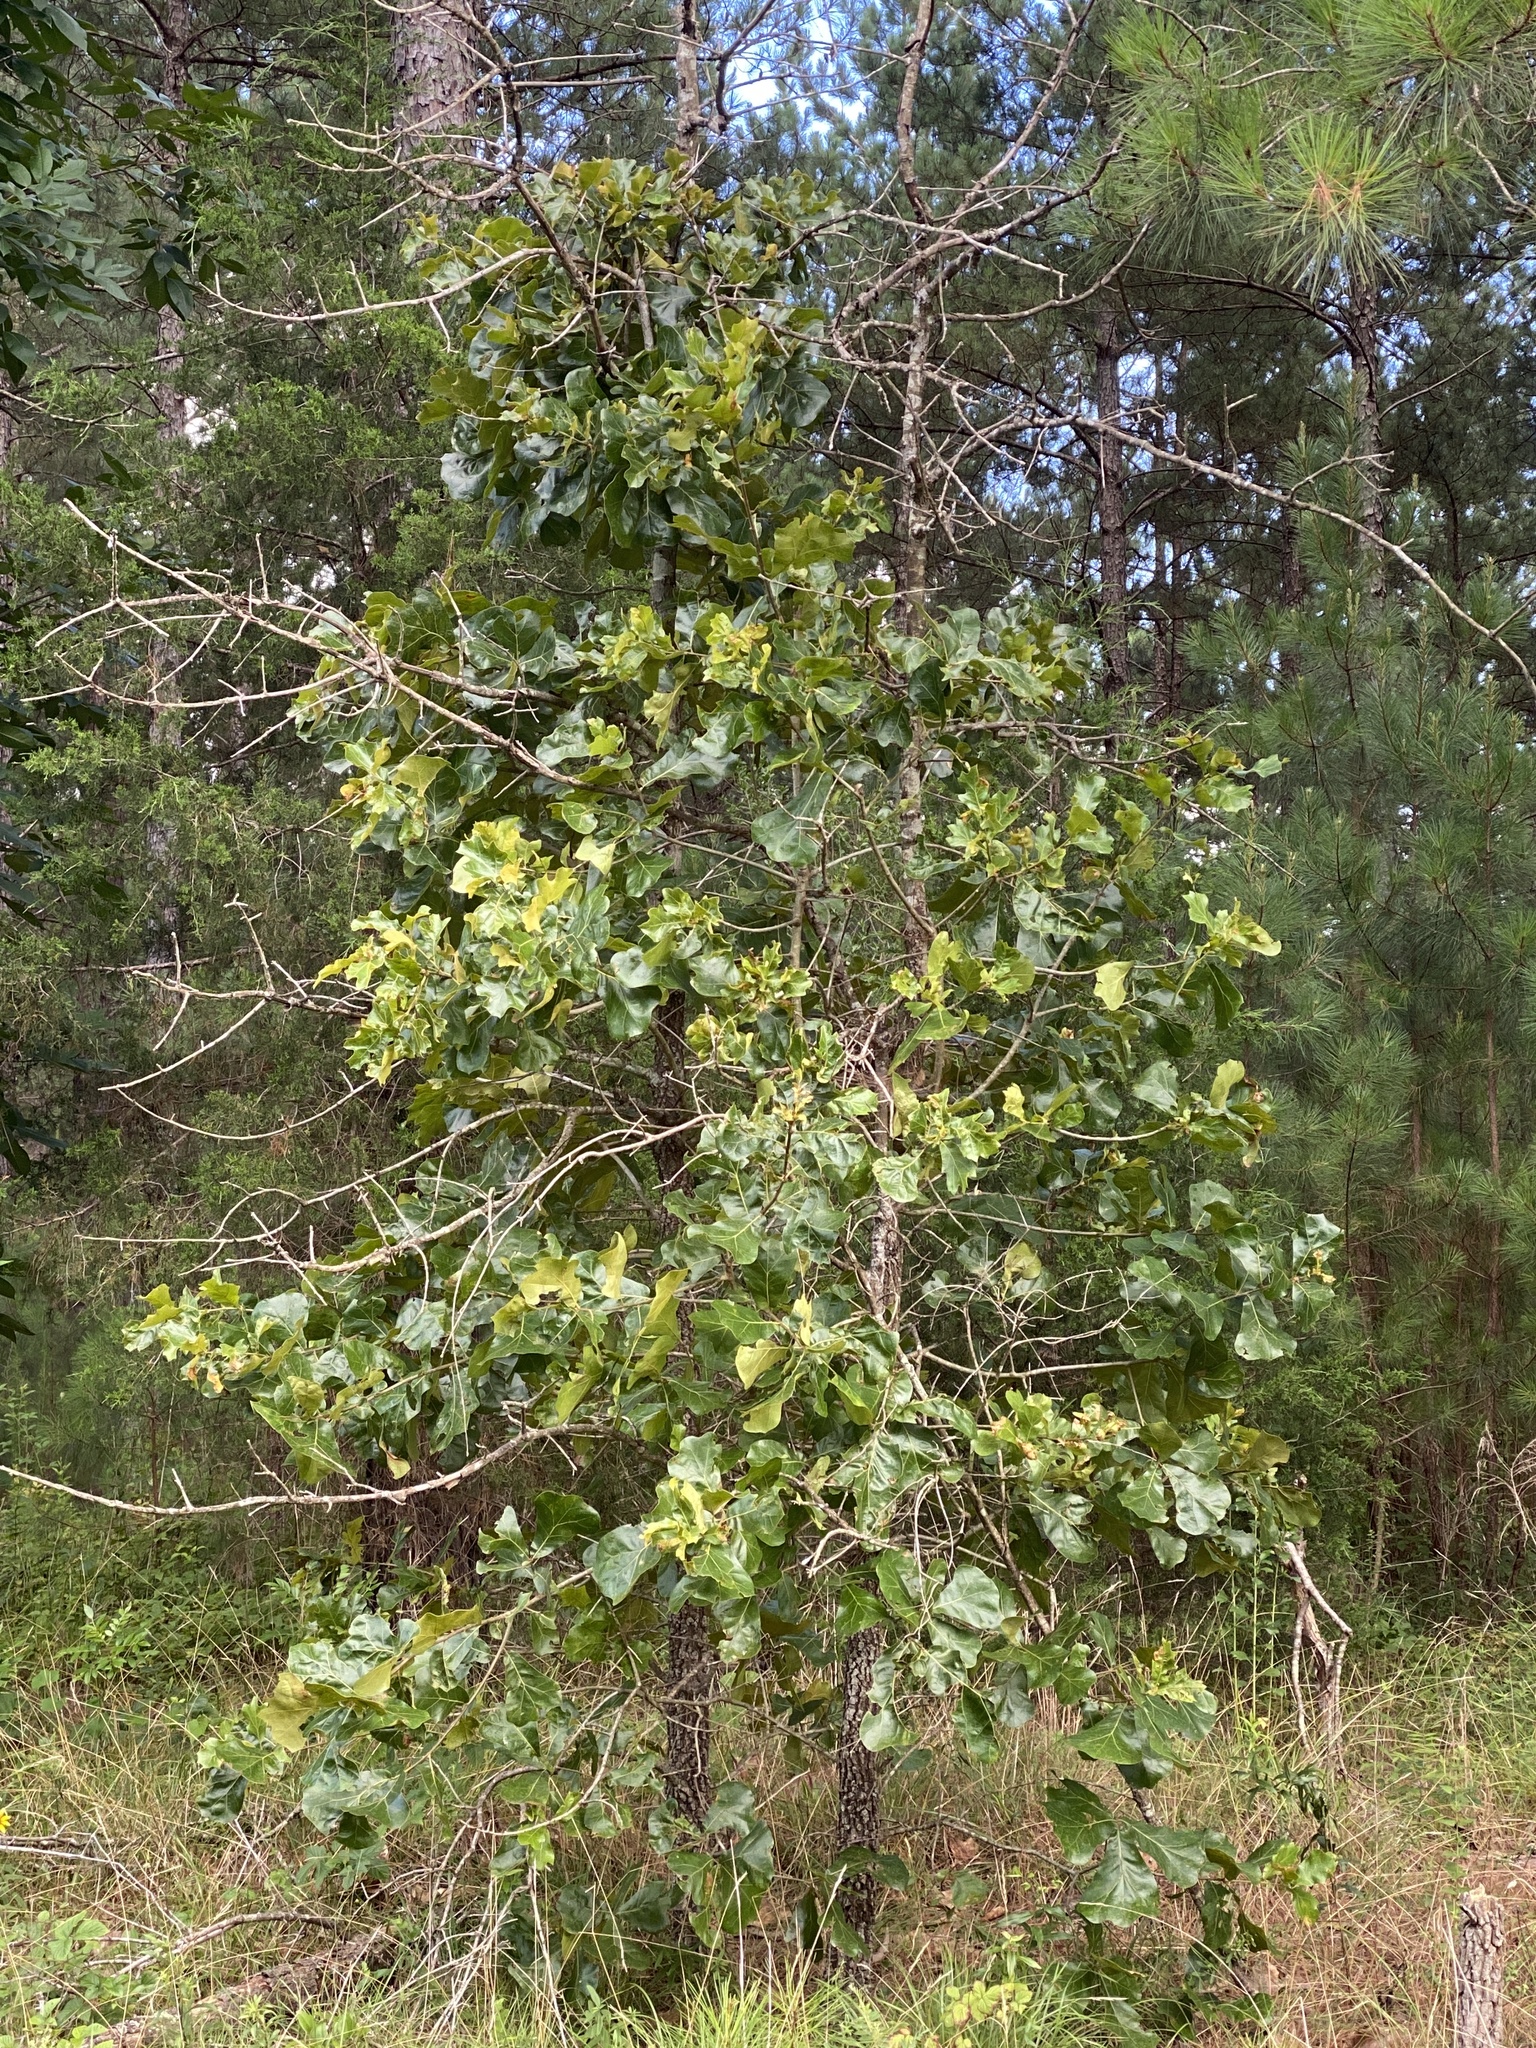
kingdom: Plantae
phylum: Tracheophyta
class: Magnoliopsida
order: Fagales
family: Fagaceae
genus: Quercus
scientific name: Quercus marilandica
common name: Blackjack oak
